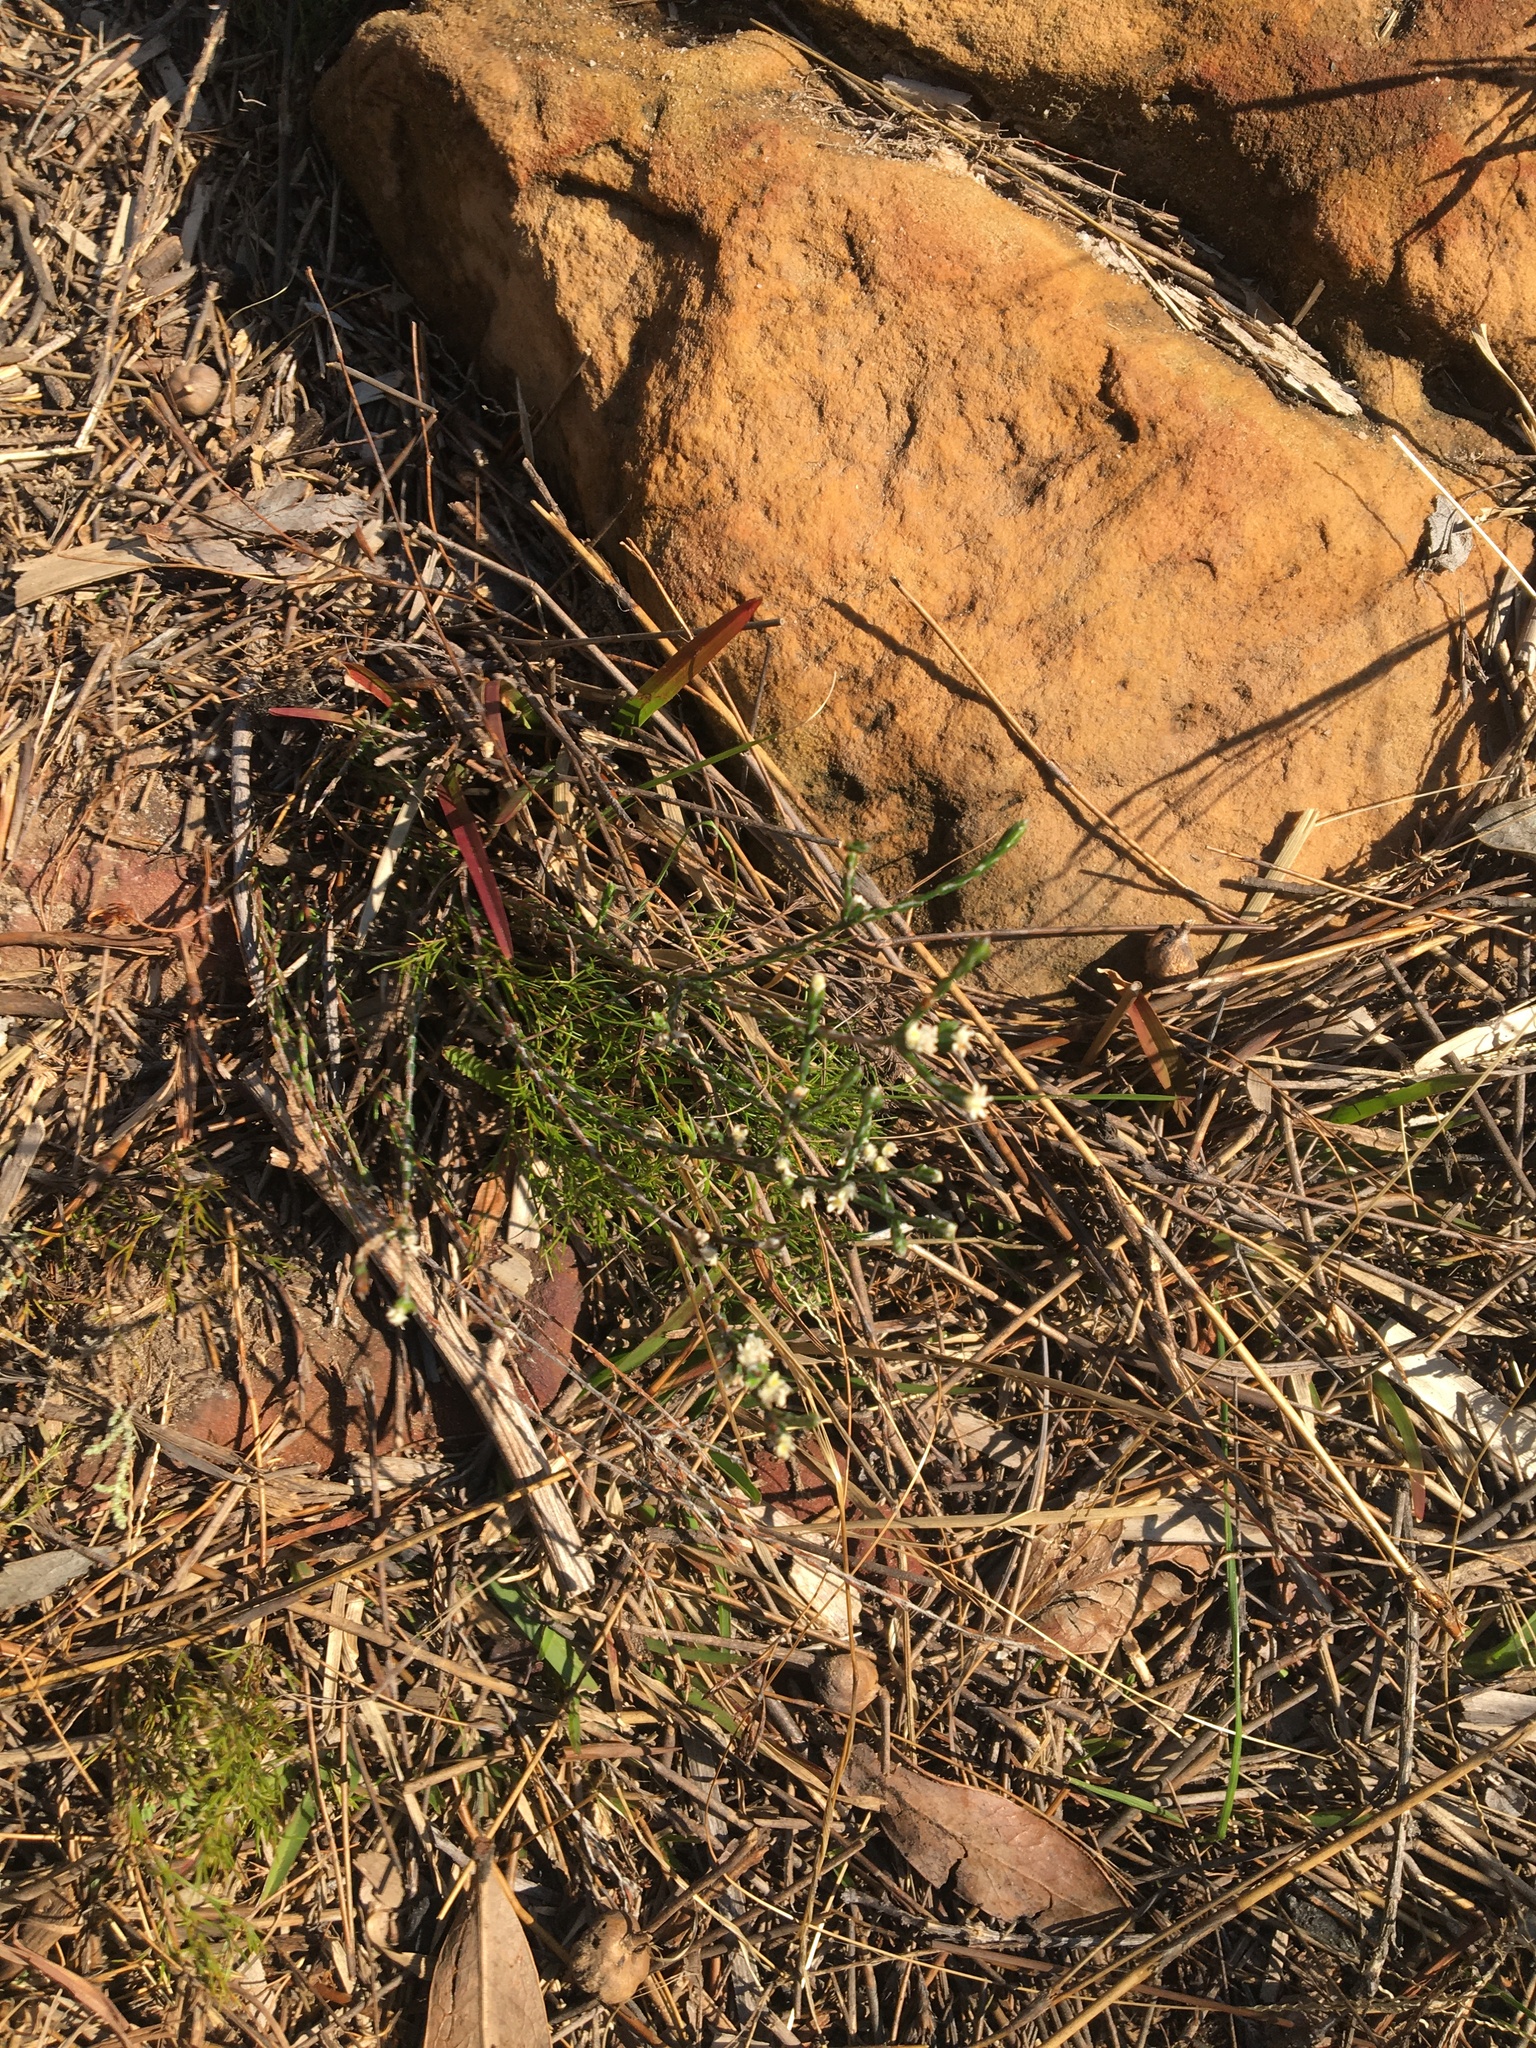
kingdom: Plantae
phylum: Tracheophyta
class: Magnoliopsida
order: Malvales
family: Thymelaeaceae
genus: Lachnaea
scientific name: Lachnaea elsieae
